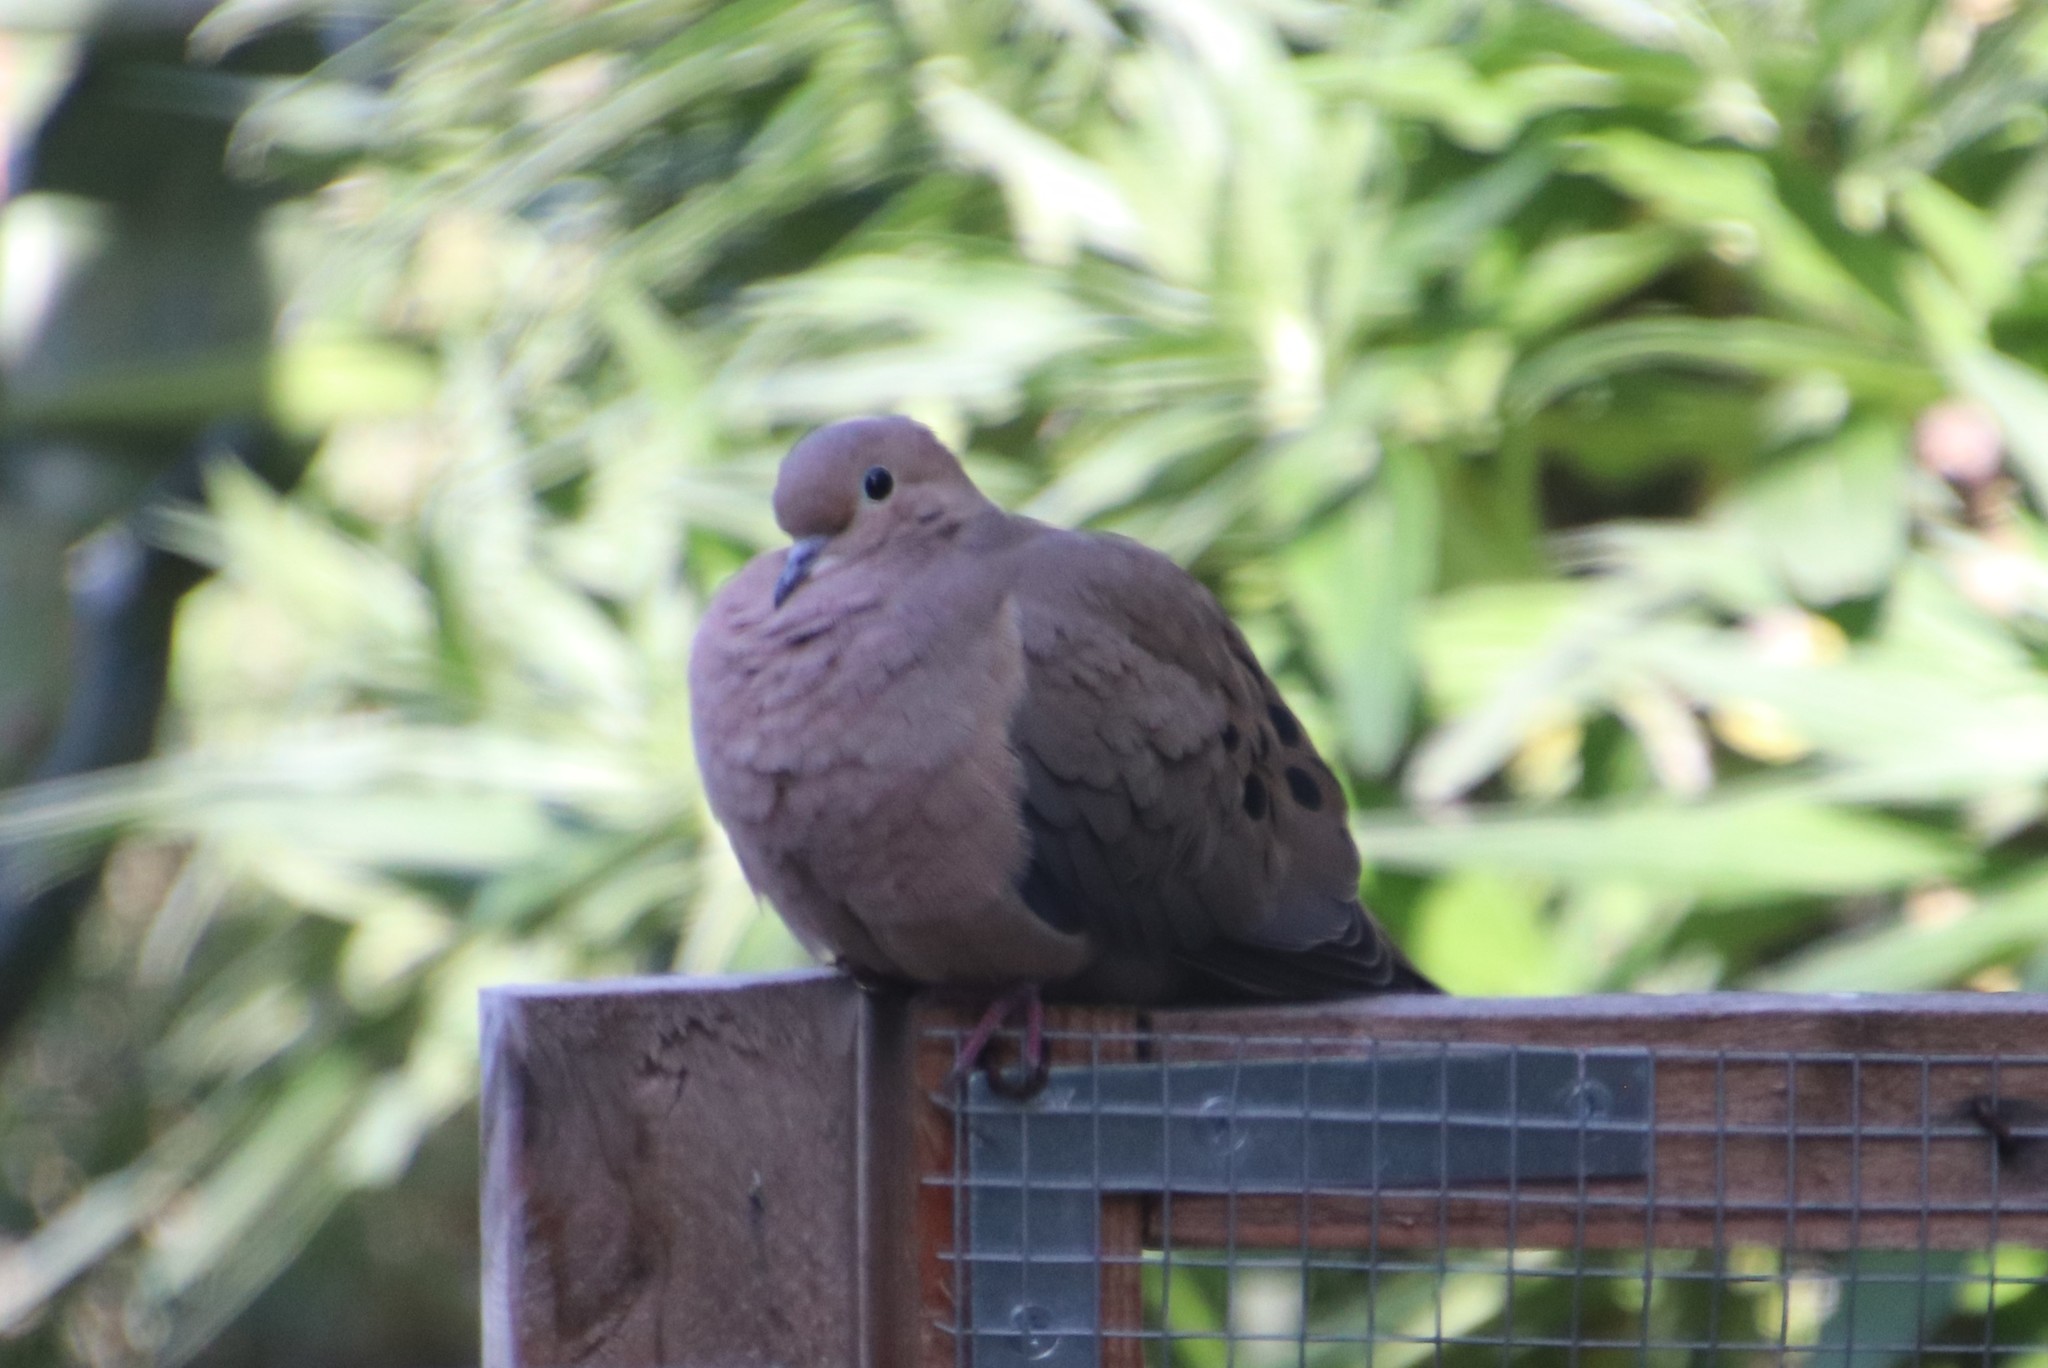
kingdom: Animalia
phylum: Chordata
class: Aves
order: Columbiformes
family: Columbidae
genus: Zenaida
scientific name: Zenaida macroura
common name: Mourning dove
